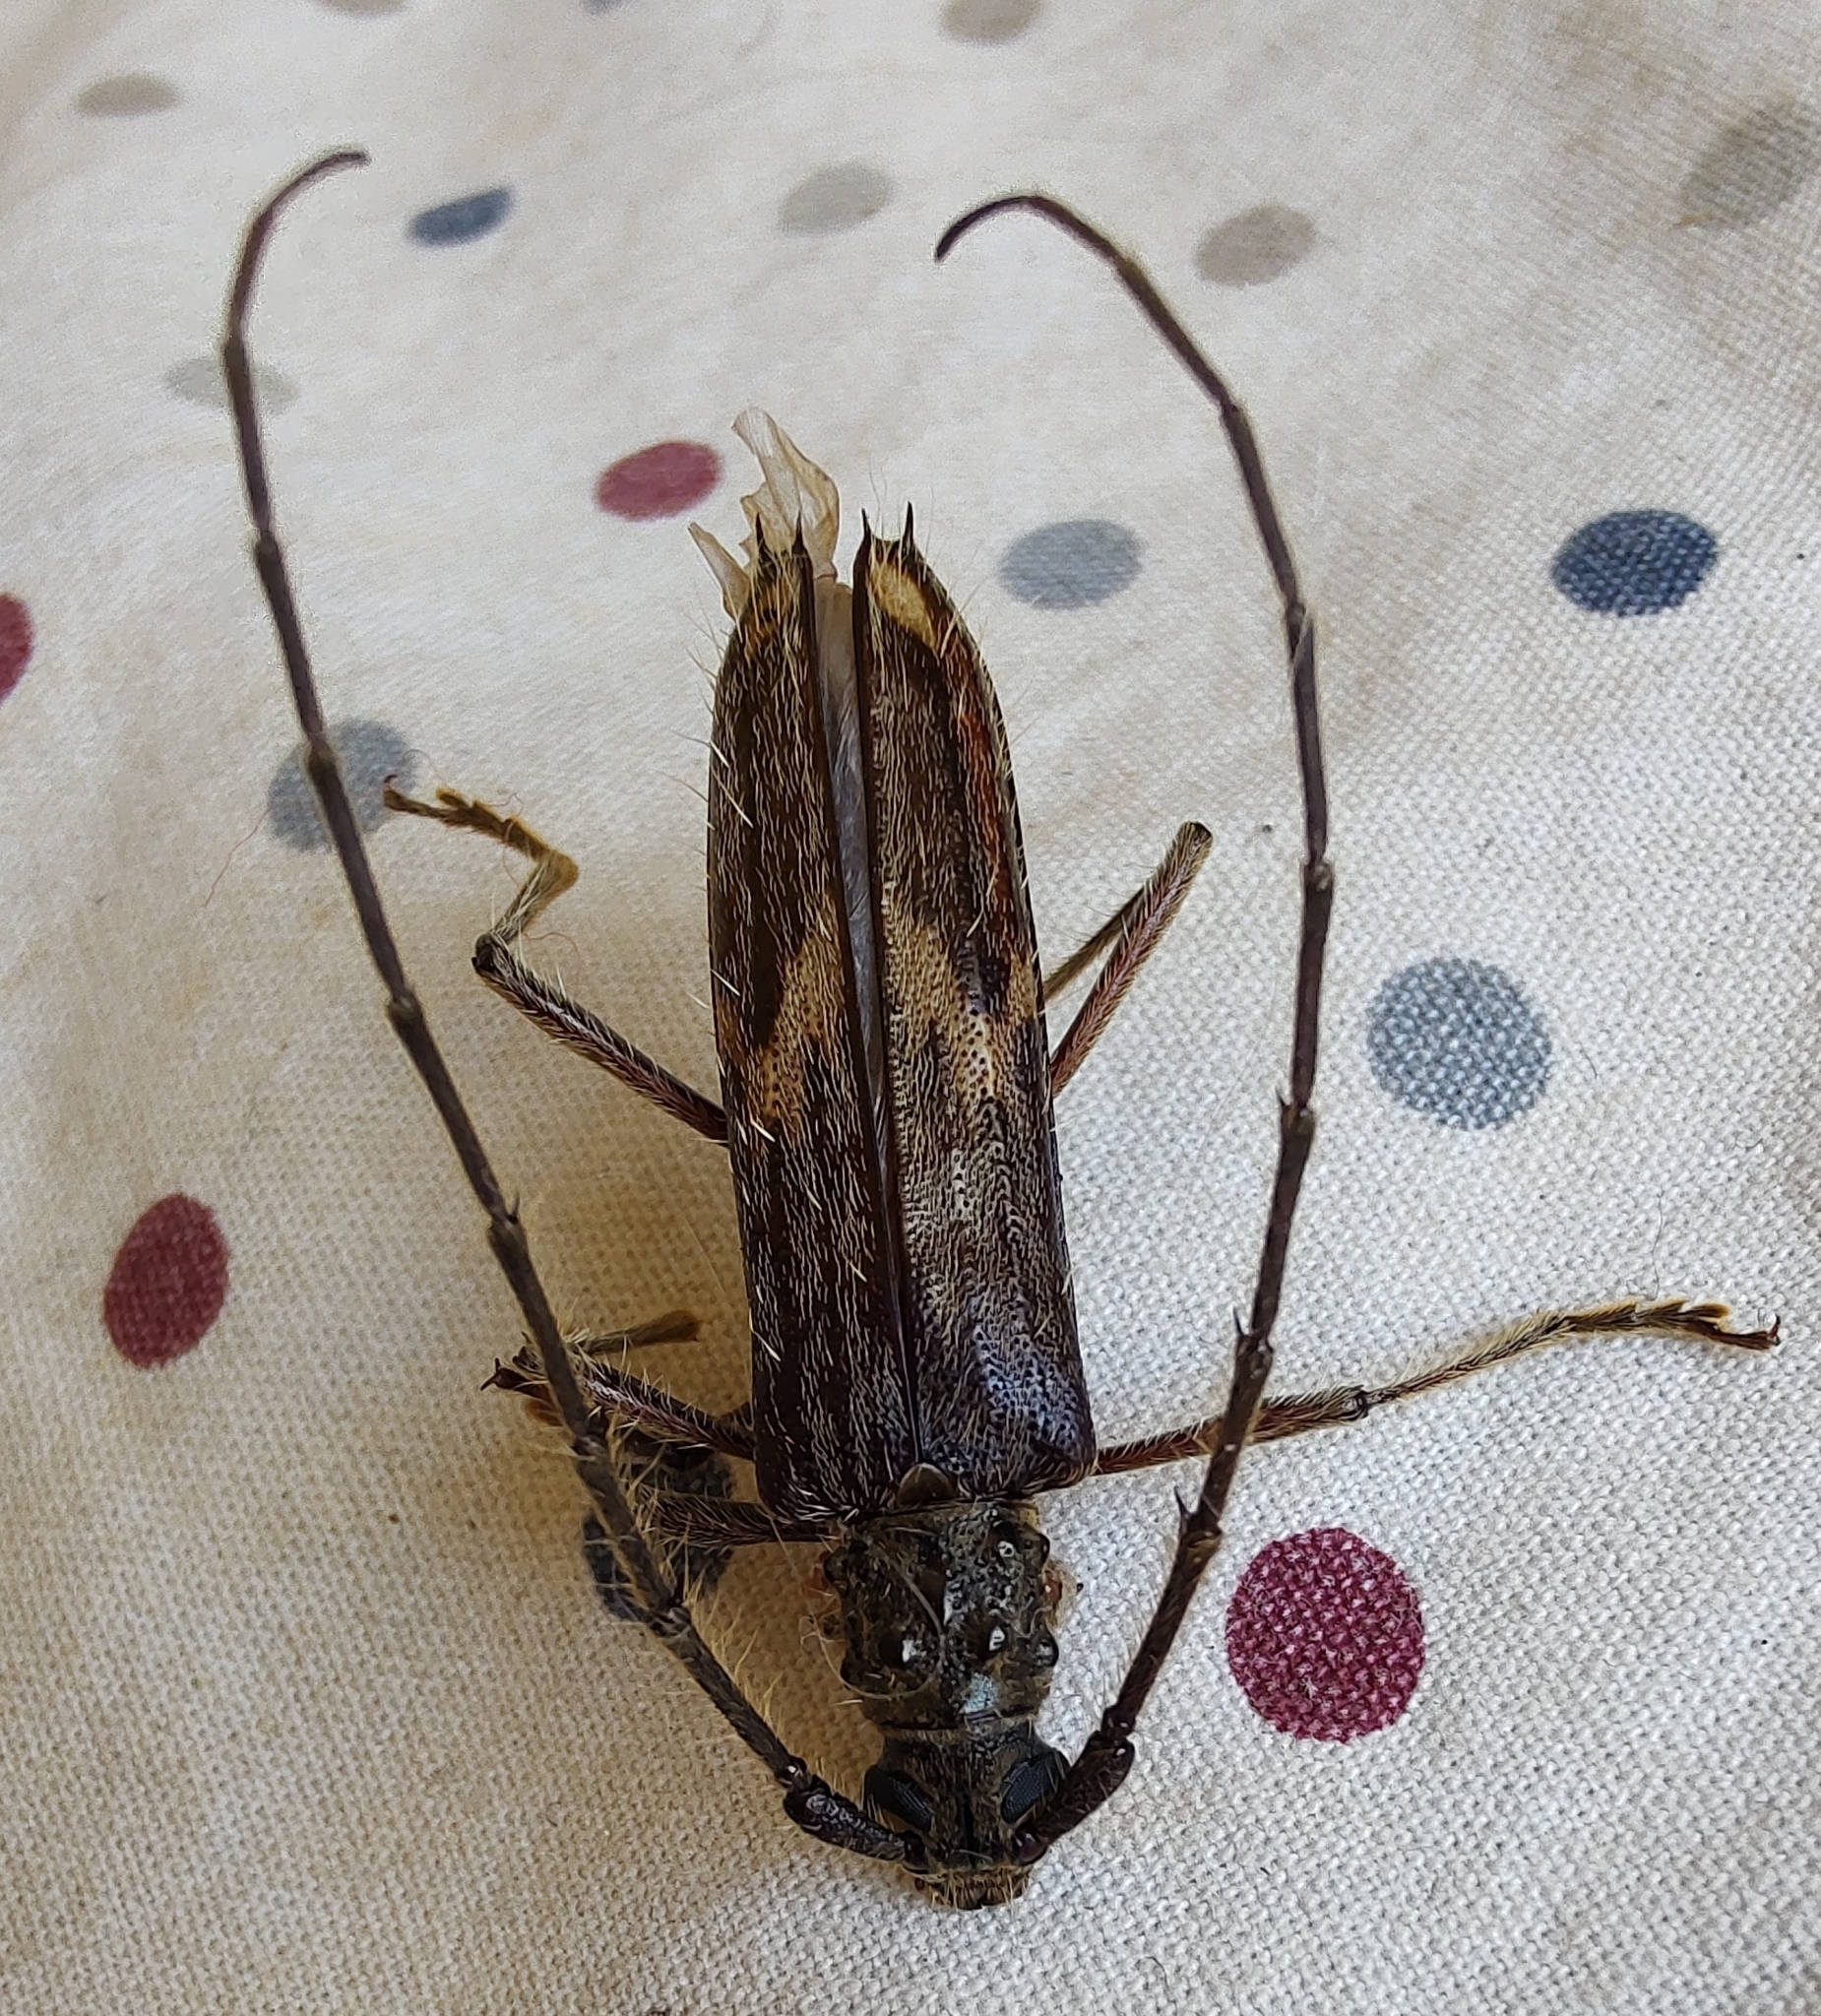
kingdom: Animalia
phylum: Arthropoda
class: Insecta
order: Coleoptera
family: Cerambycidae
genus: Eurysthea
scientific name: Eurysthea lacordairei
